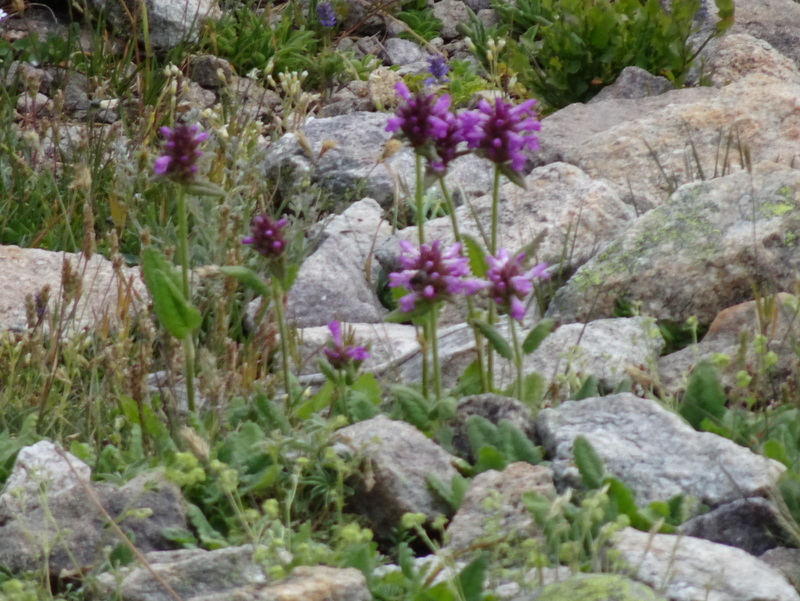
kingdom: Plantae
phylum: Tracheophyta
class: Magnoliopsida
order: Lamiales
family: Lamiaceae
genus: Betonica
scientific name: Betonica officinalis
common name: Bishop's-wort
